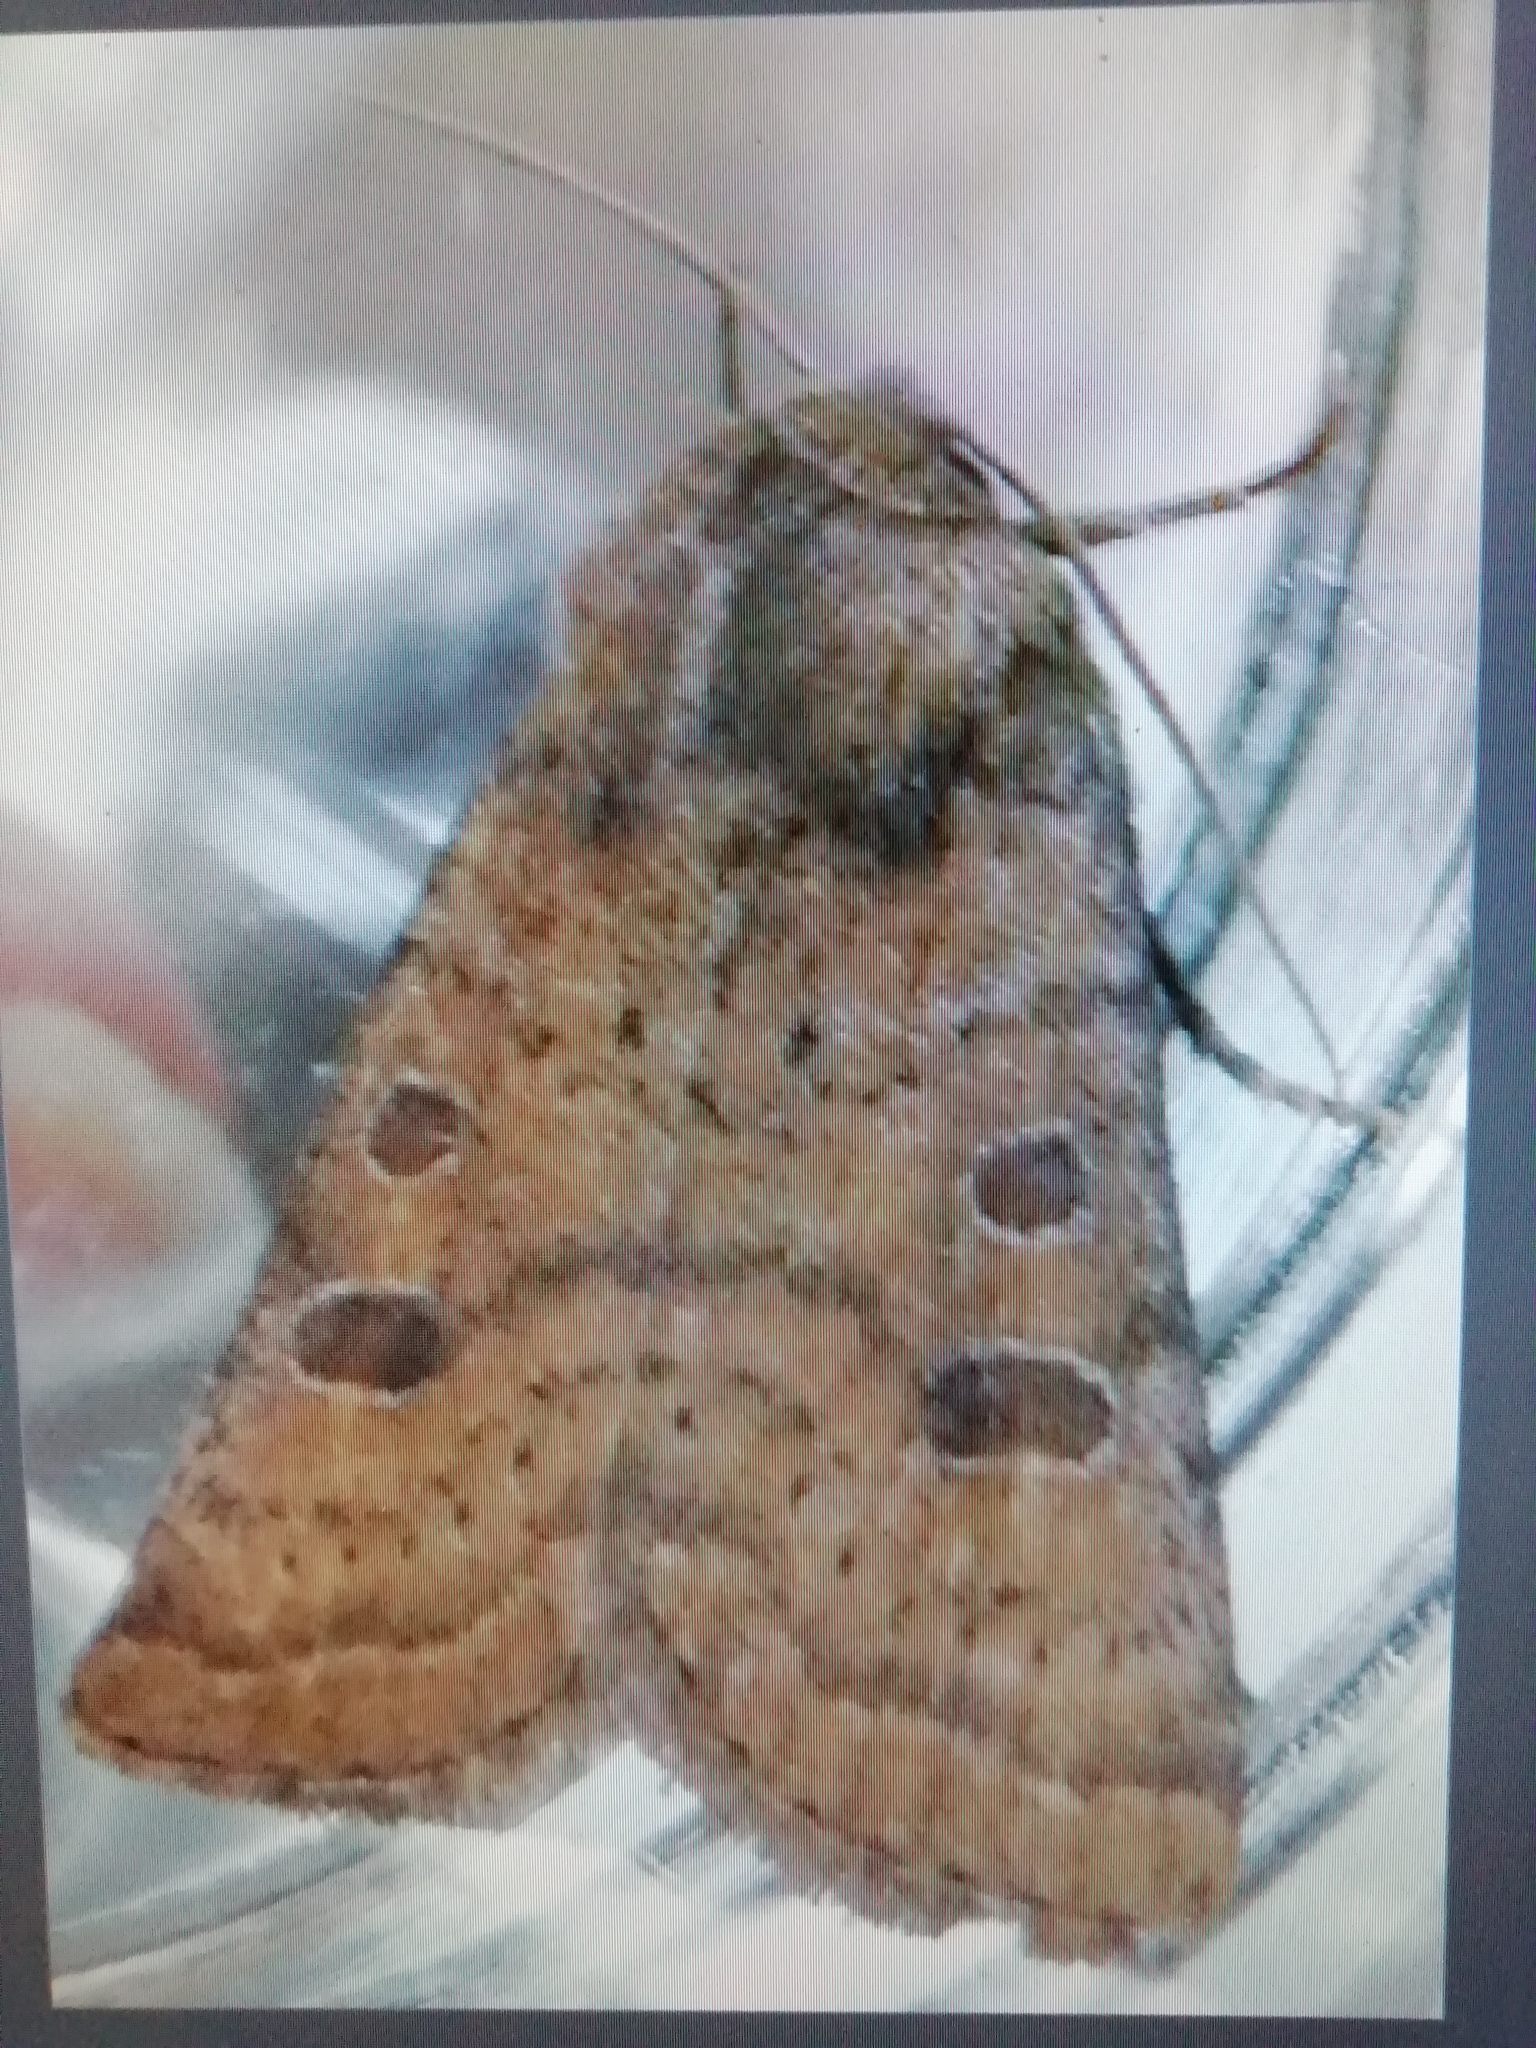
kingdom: Animalia
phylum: Arthropoda
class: Insecta
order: Lepidoptera
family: Noctuidae
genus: Hoplodrina
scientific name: Hoplodrina octogenaria
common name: Uncertain
